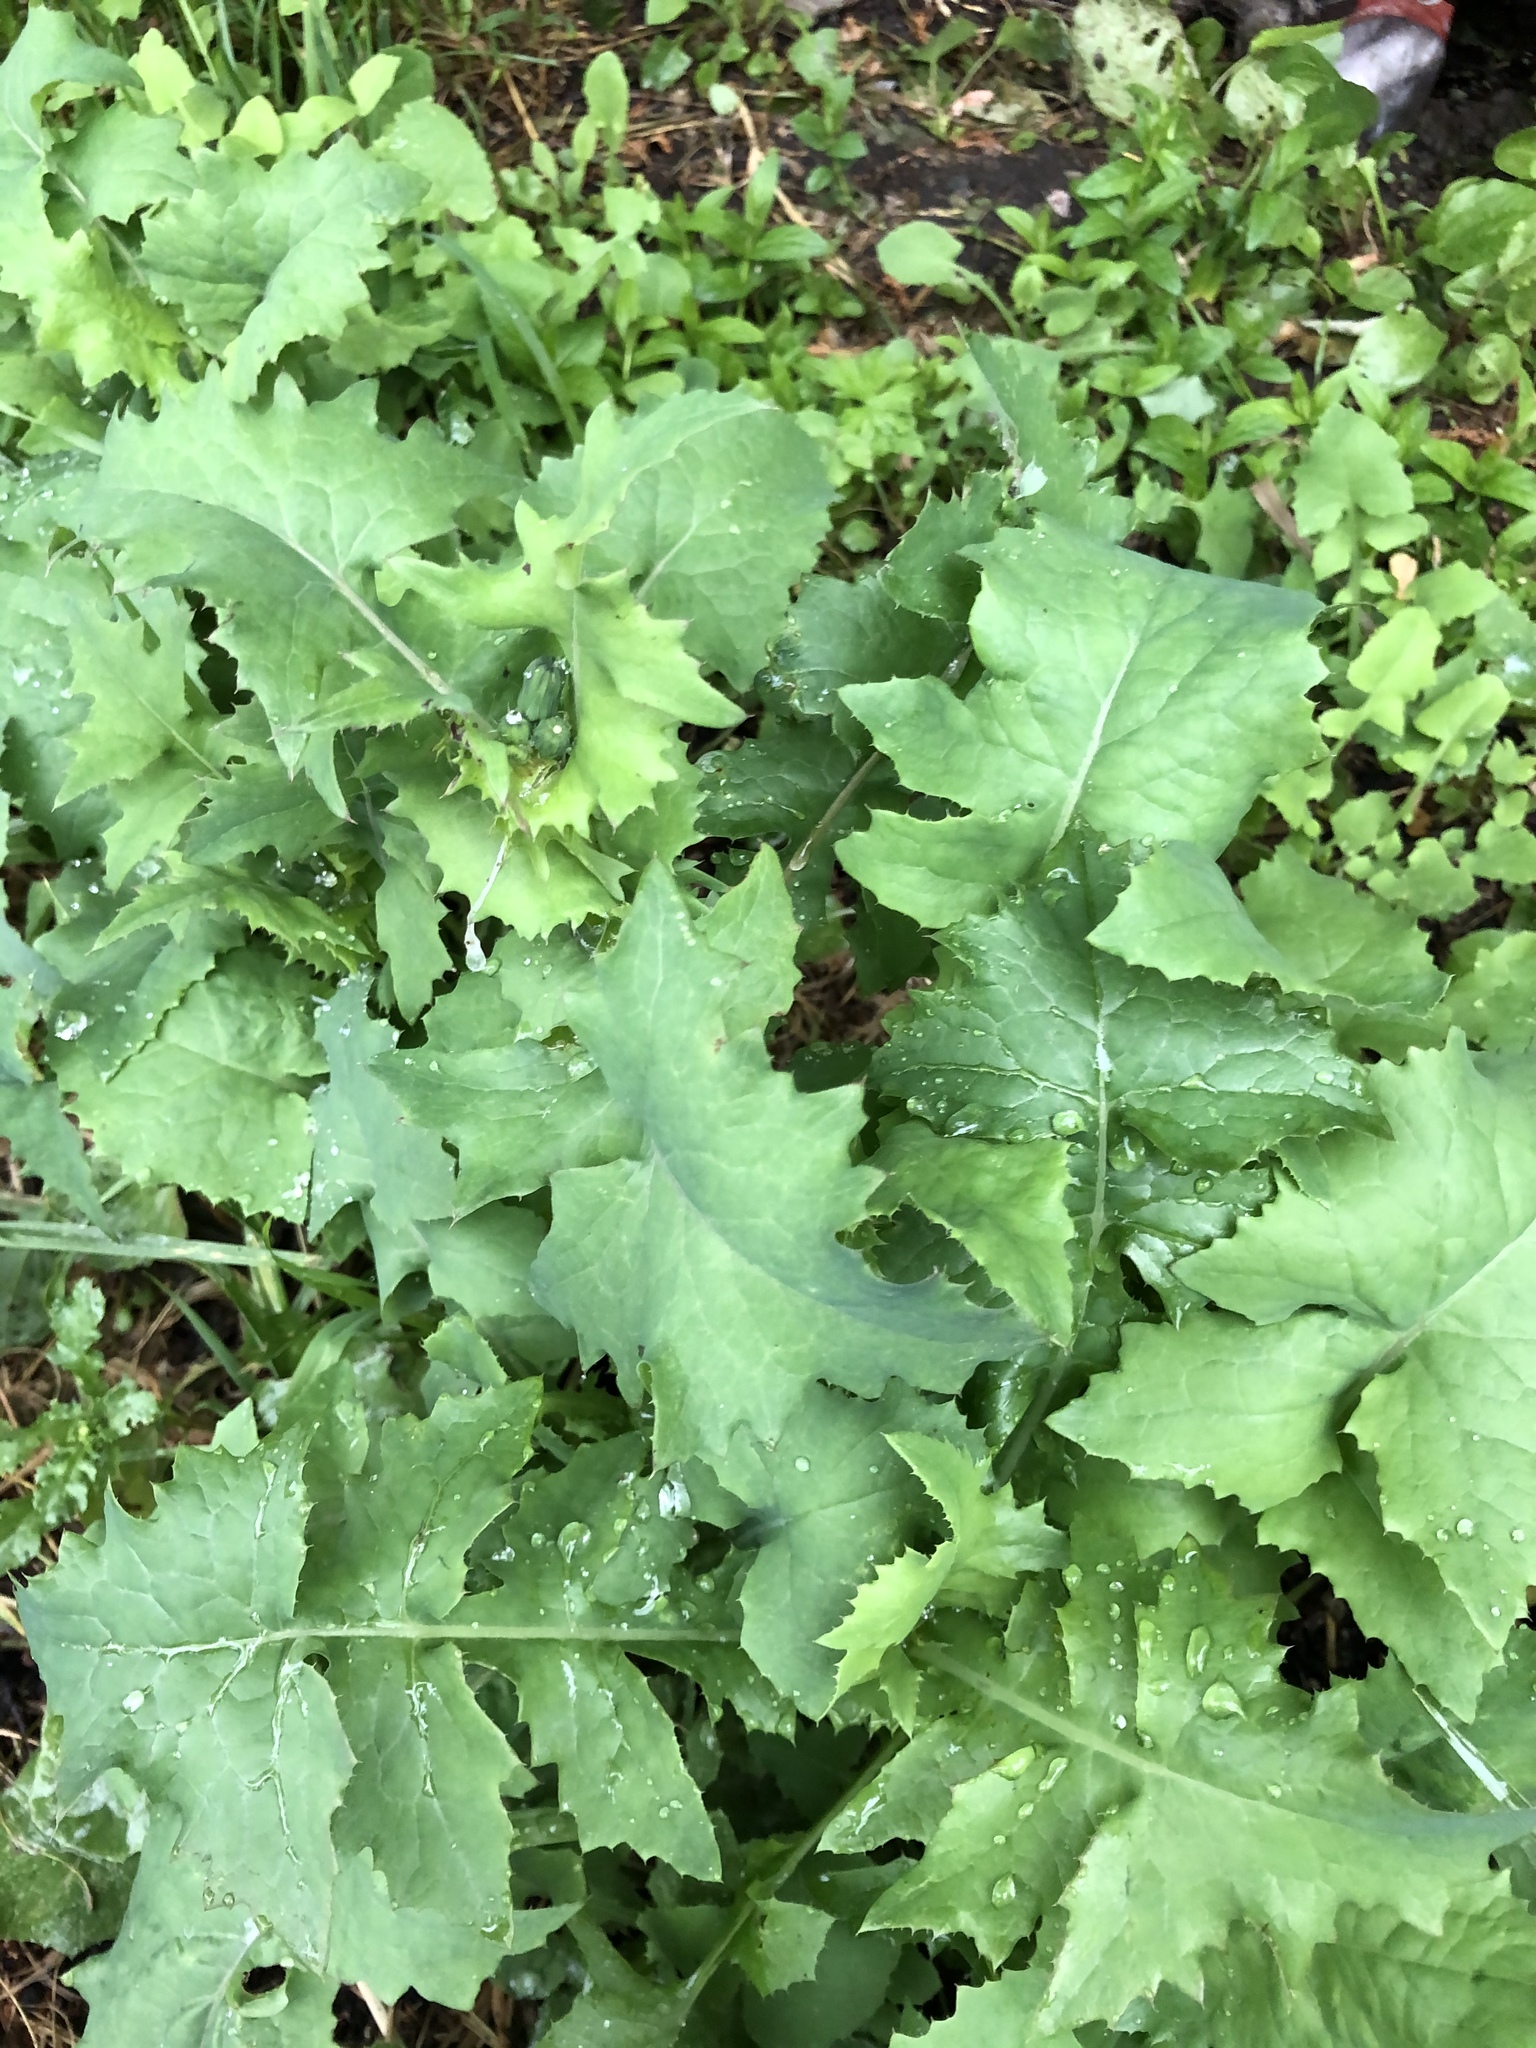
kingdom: Plantae
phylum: Tracheophyta
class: Magnoliopsida
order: Asterales
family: Asteraceae
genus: Sonchus
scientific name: Sonchus oleraceus
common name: Common sowthistle
